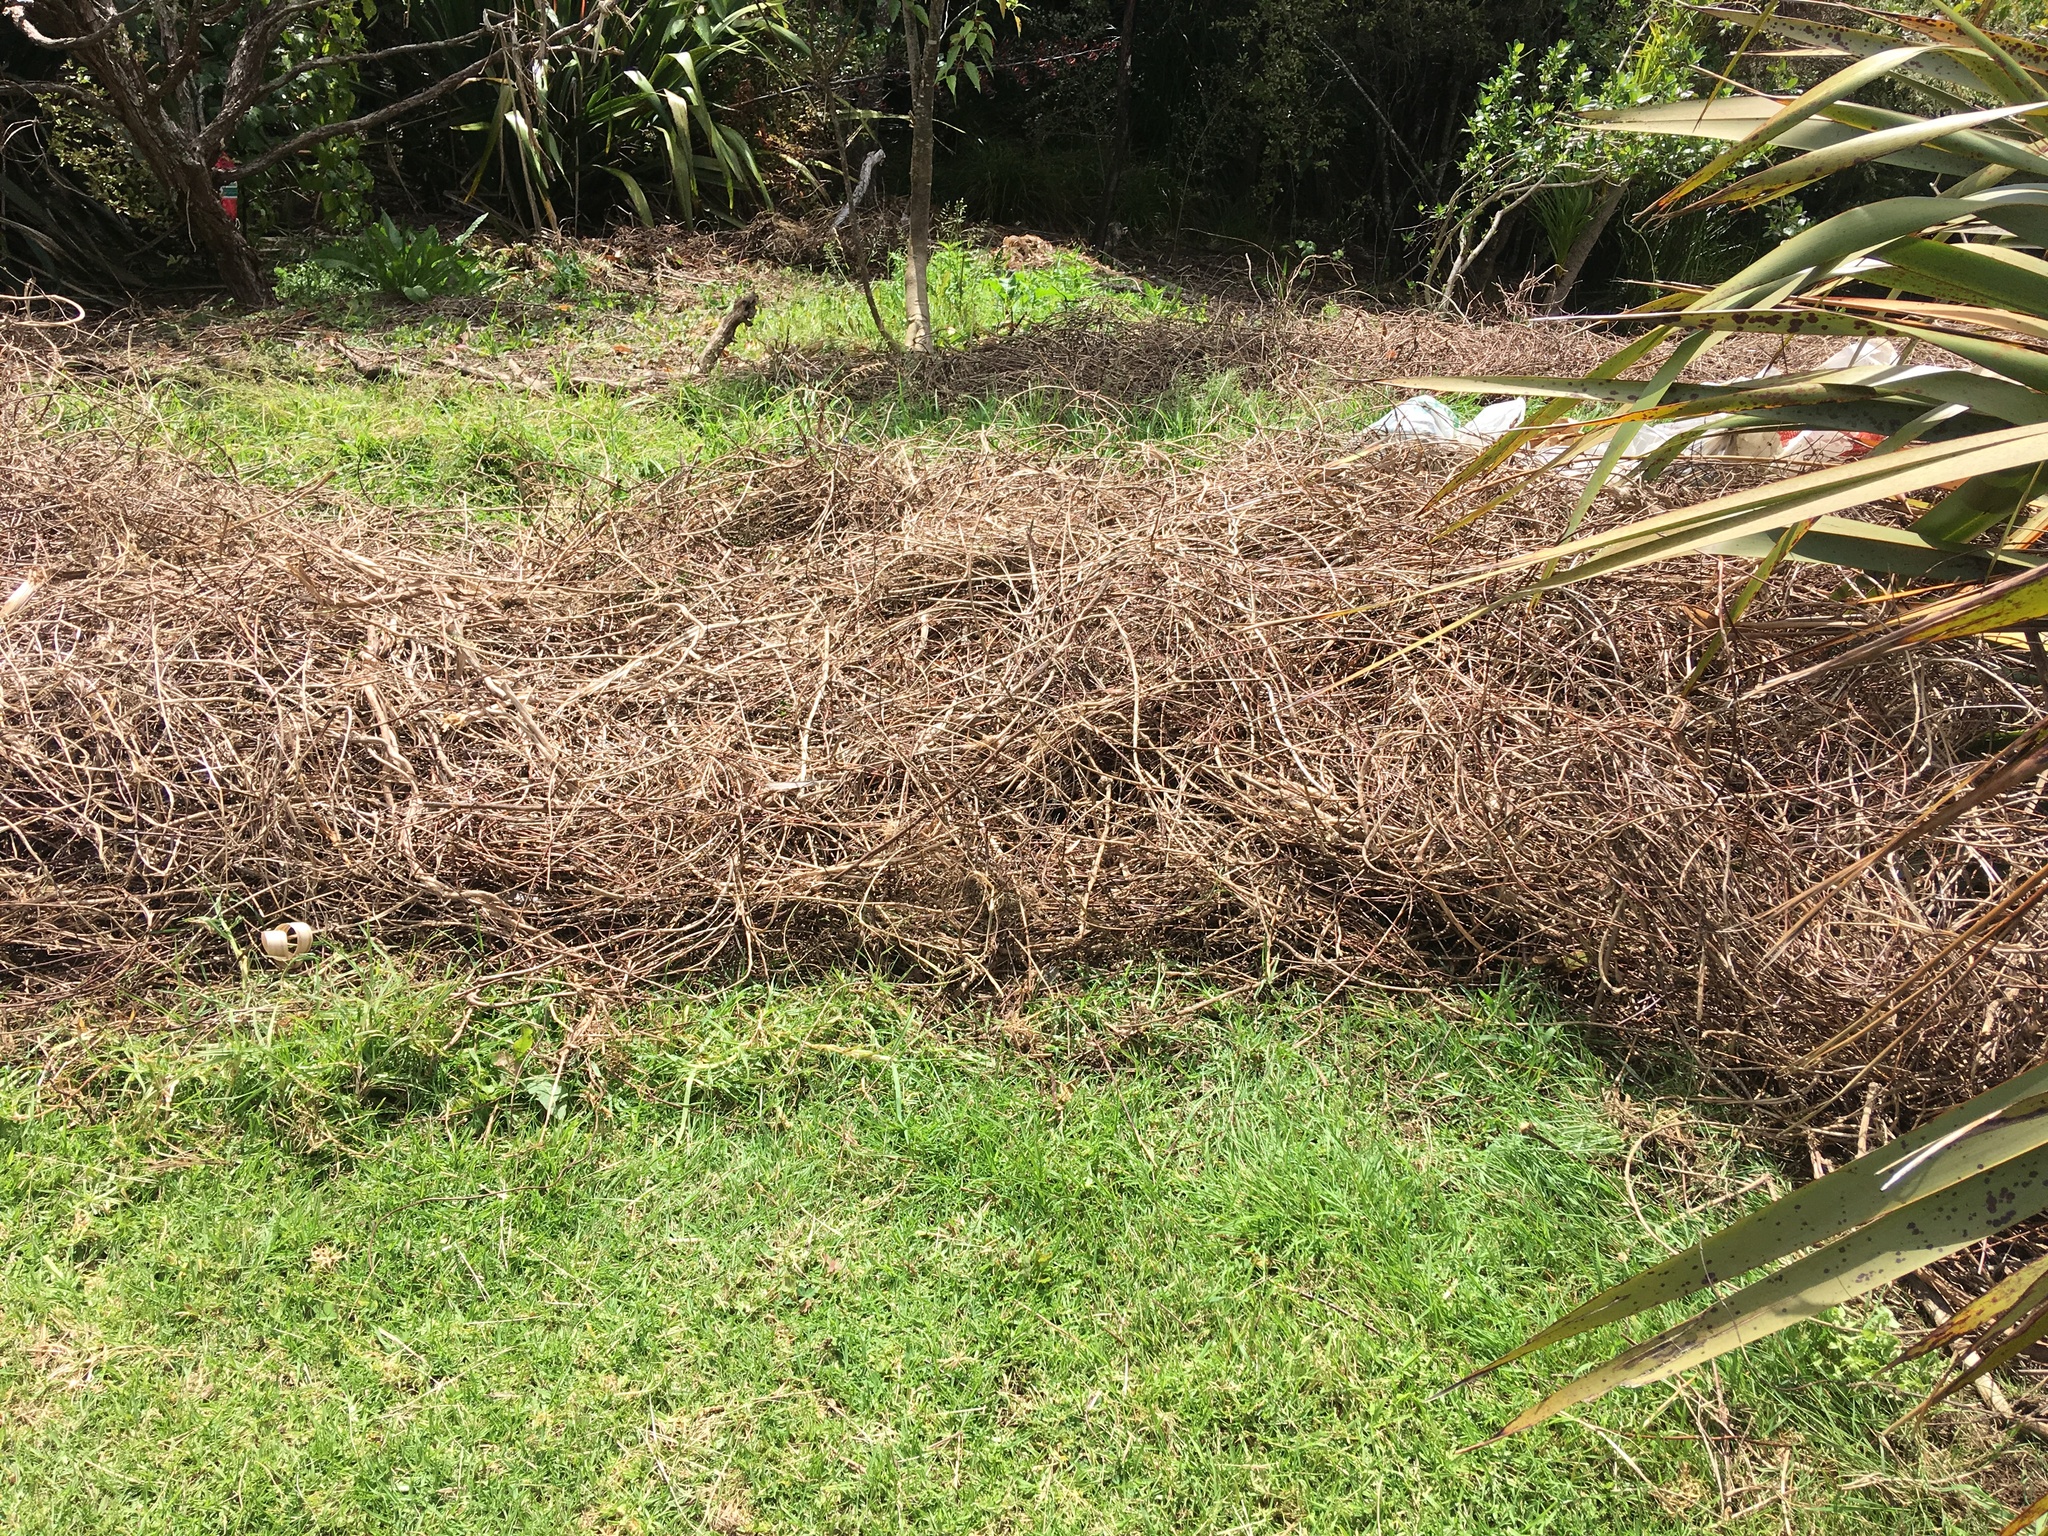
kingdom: Plantae
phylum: Tracheophyta
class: Liliopsida
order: Poales
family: Poaceae
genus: Cenchrus
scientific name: Cenchrus clandestinus
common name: Kikuyugrass
